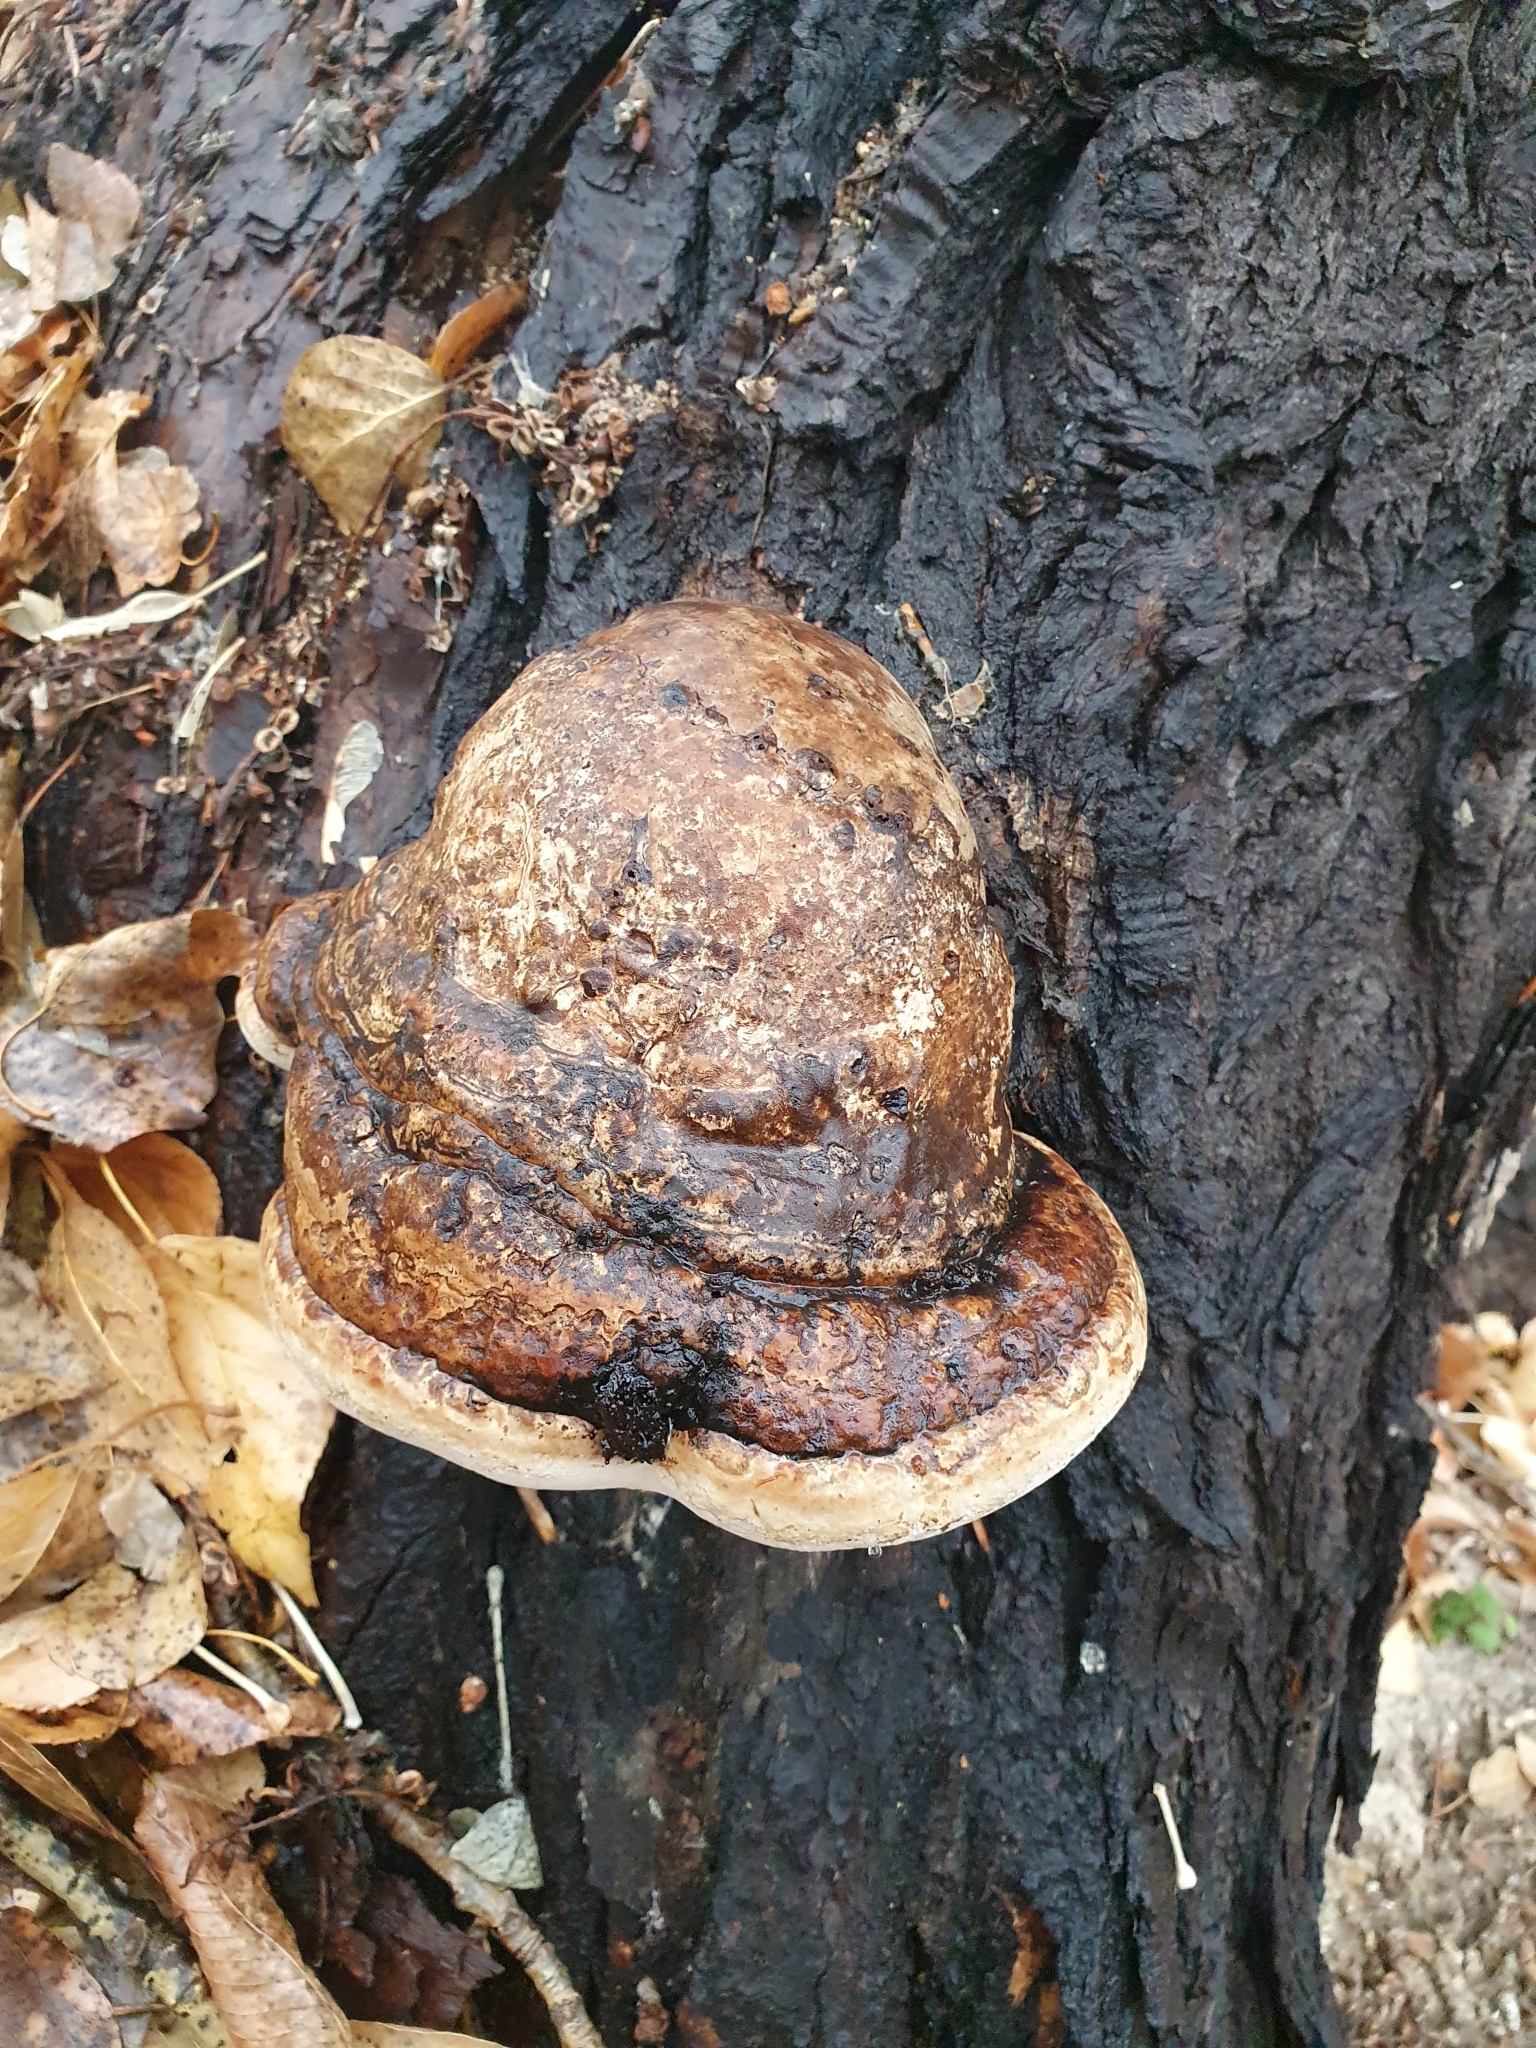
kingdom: Fungi
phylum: Basidiomycota
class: Agaricomycetes
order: Polyporales
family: Polyporaceae
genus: Fomes
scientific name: Fomes fomentarius
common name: Hoof fungus
